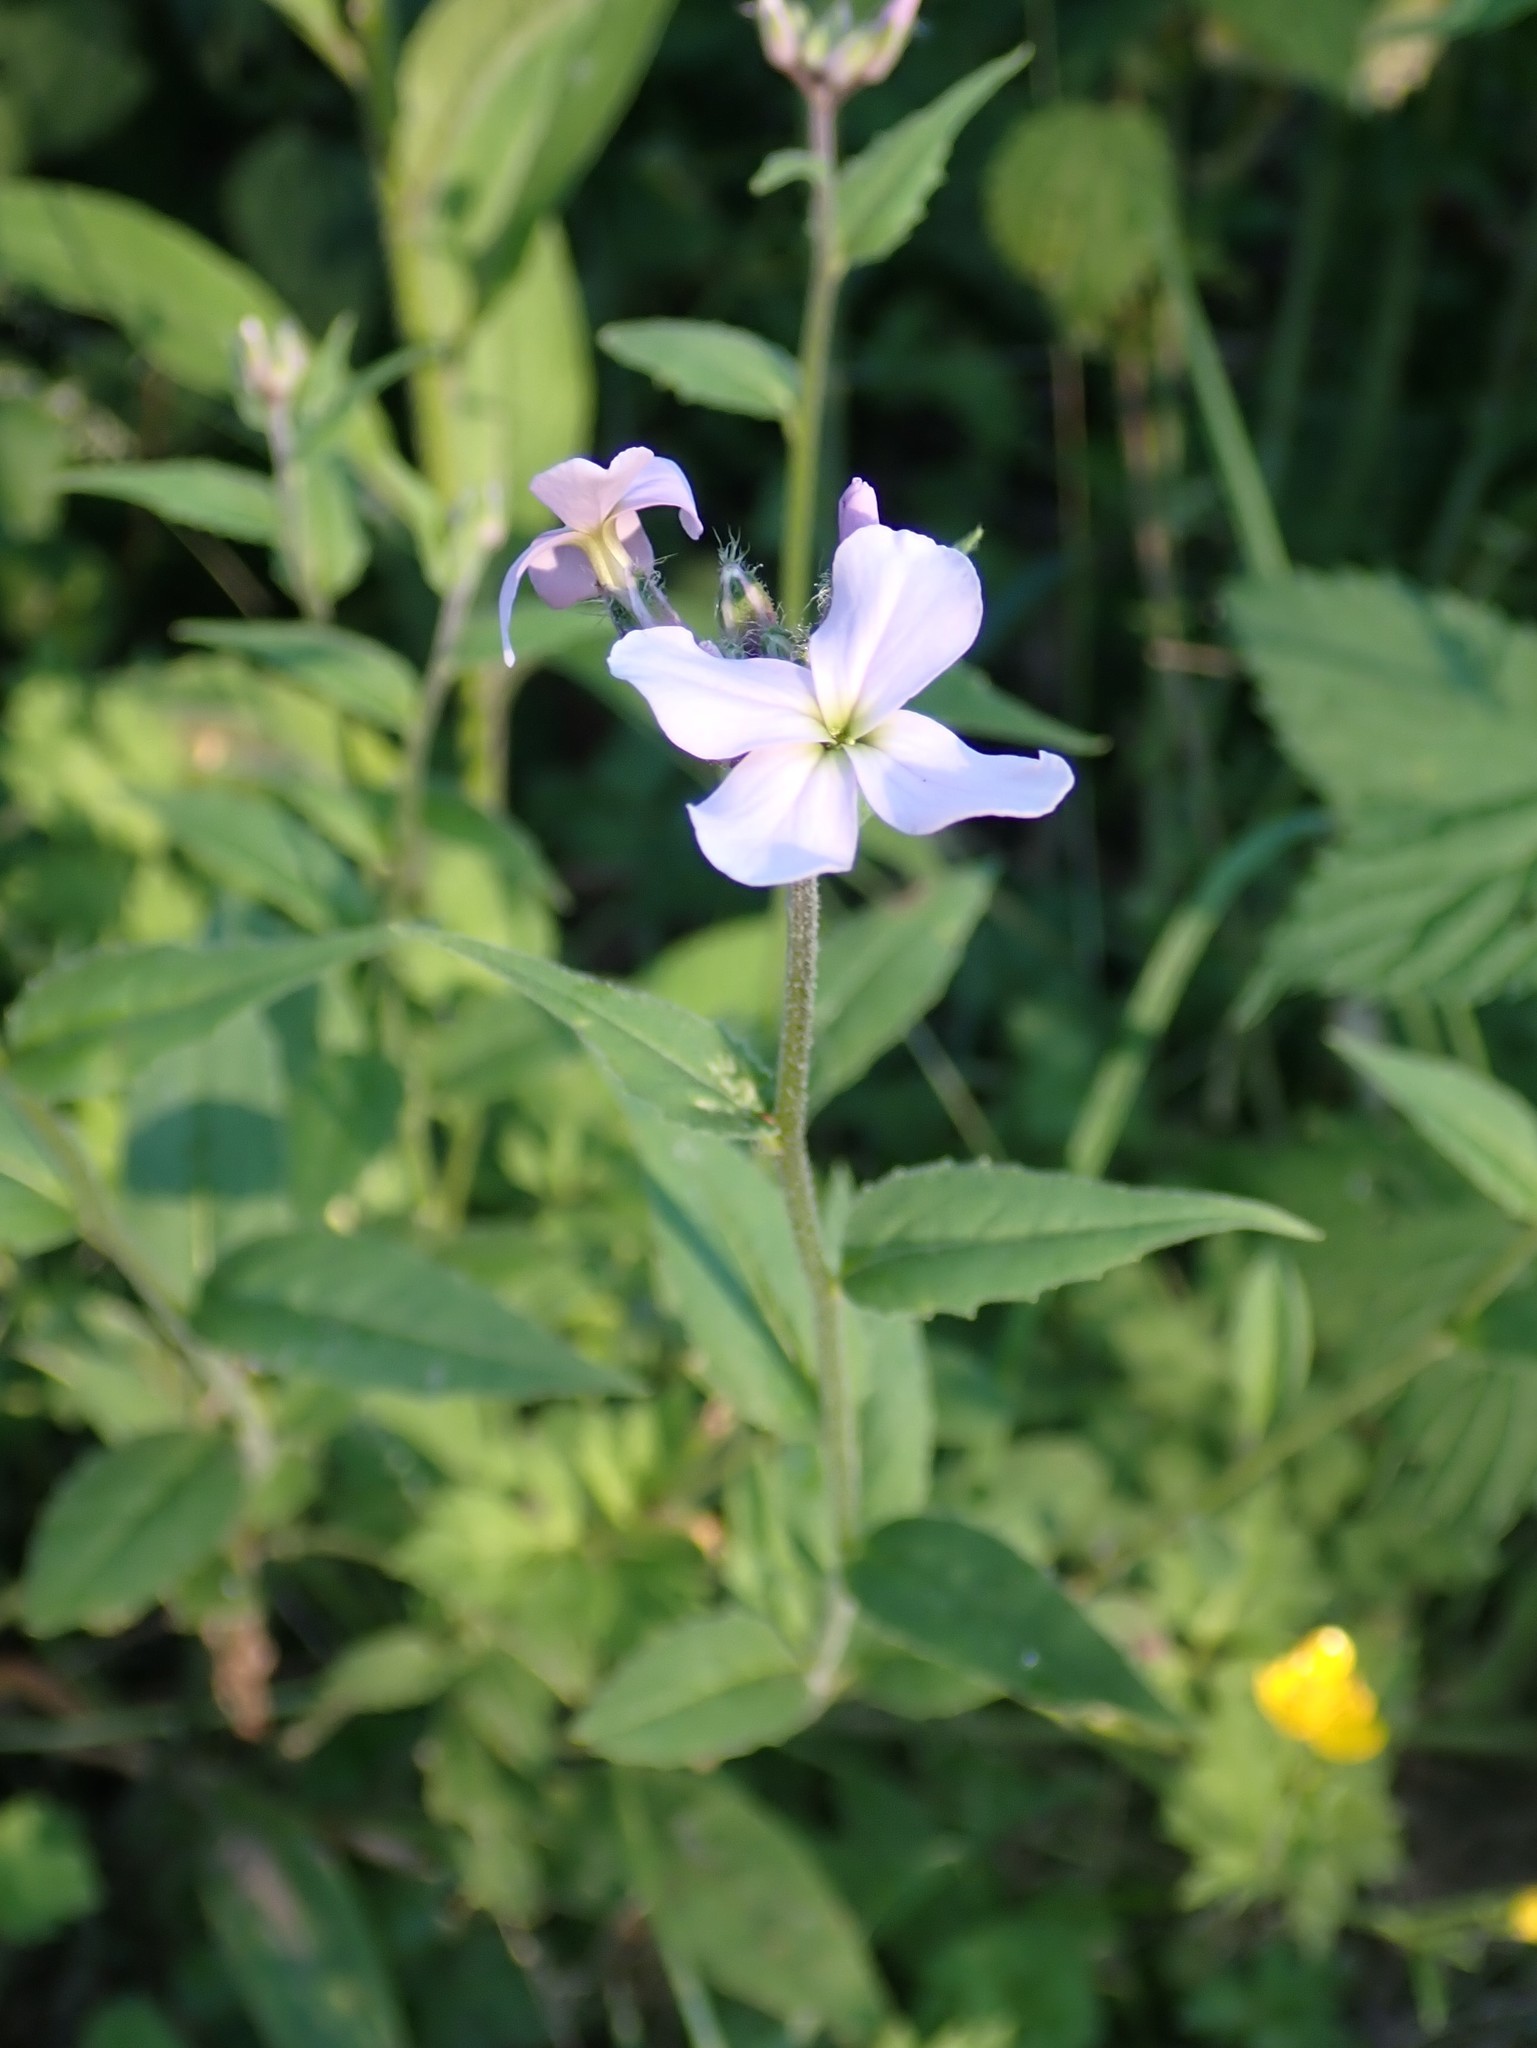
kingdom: Plantae
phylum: Tracheophyta
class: Magnoliopsida
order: Brassicales
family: Brassicaceae
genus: Hesperis
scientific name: Hesperis matronalis
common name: Dame's-violet
